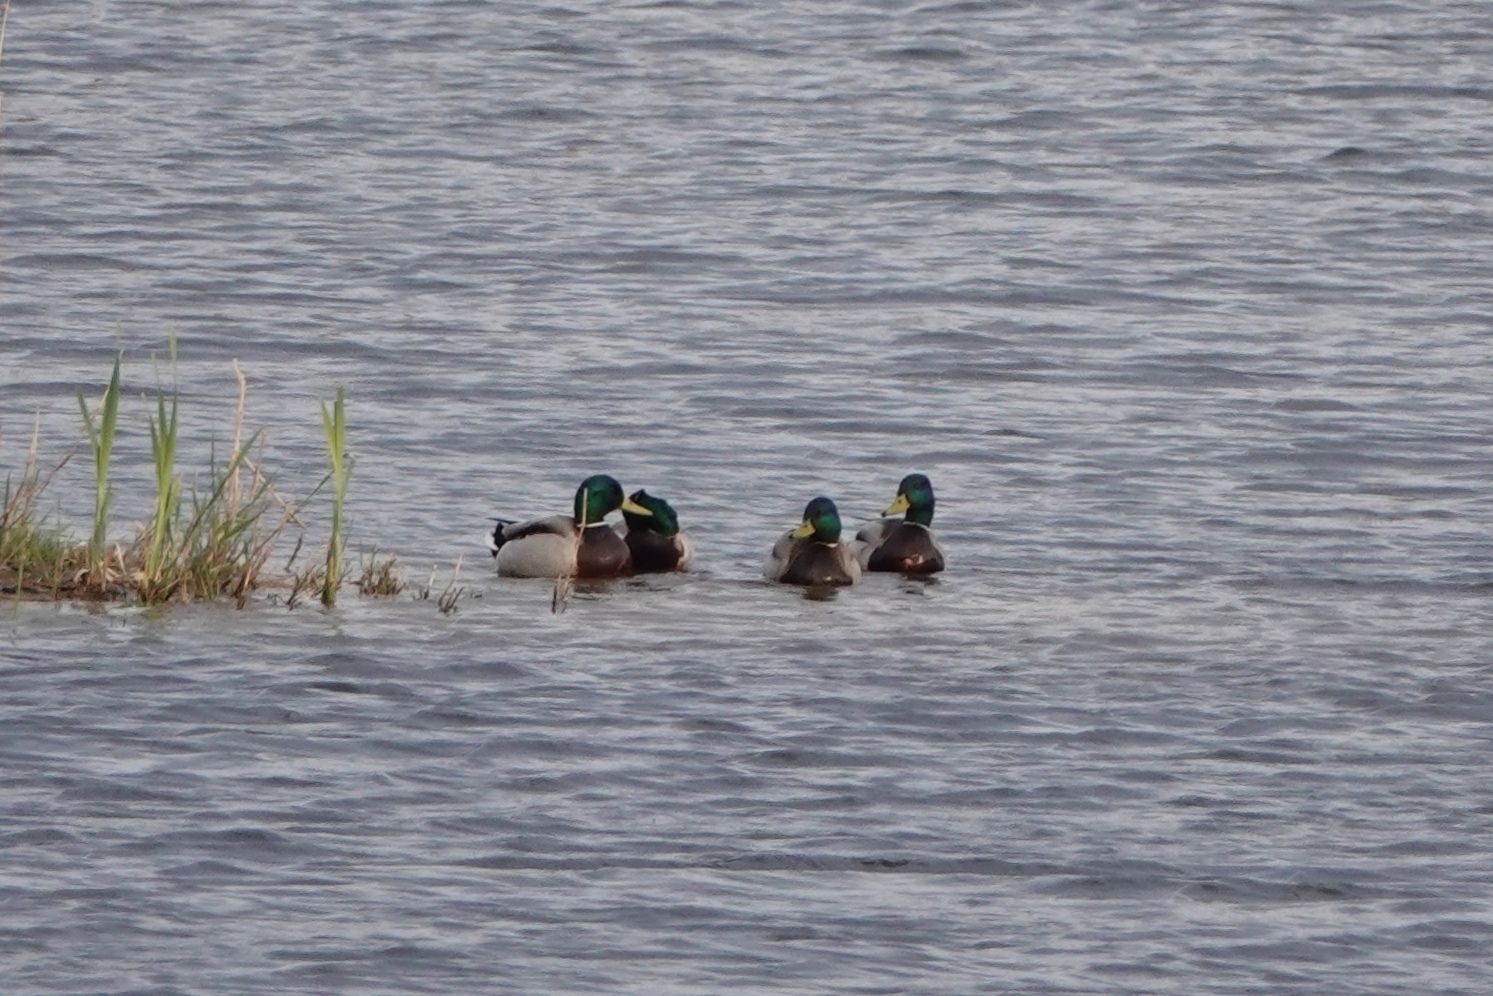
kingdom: Animalia
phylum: Chordata
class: Aves
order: Anseriformes
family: Anatidae
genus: Anas
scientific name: Anas platyrhynchos
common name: Mallard
